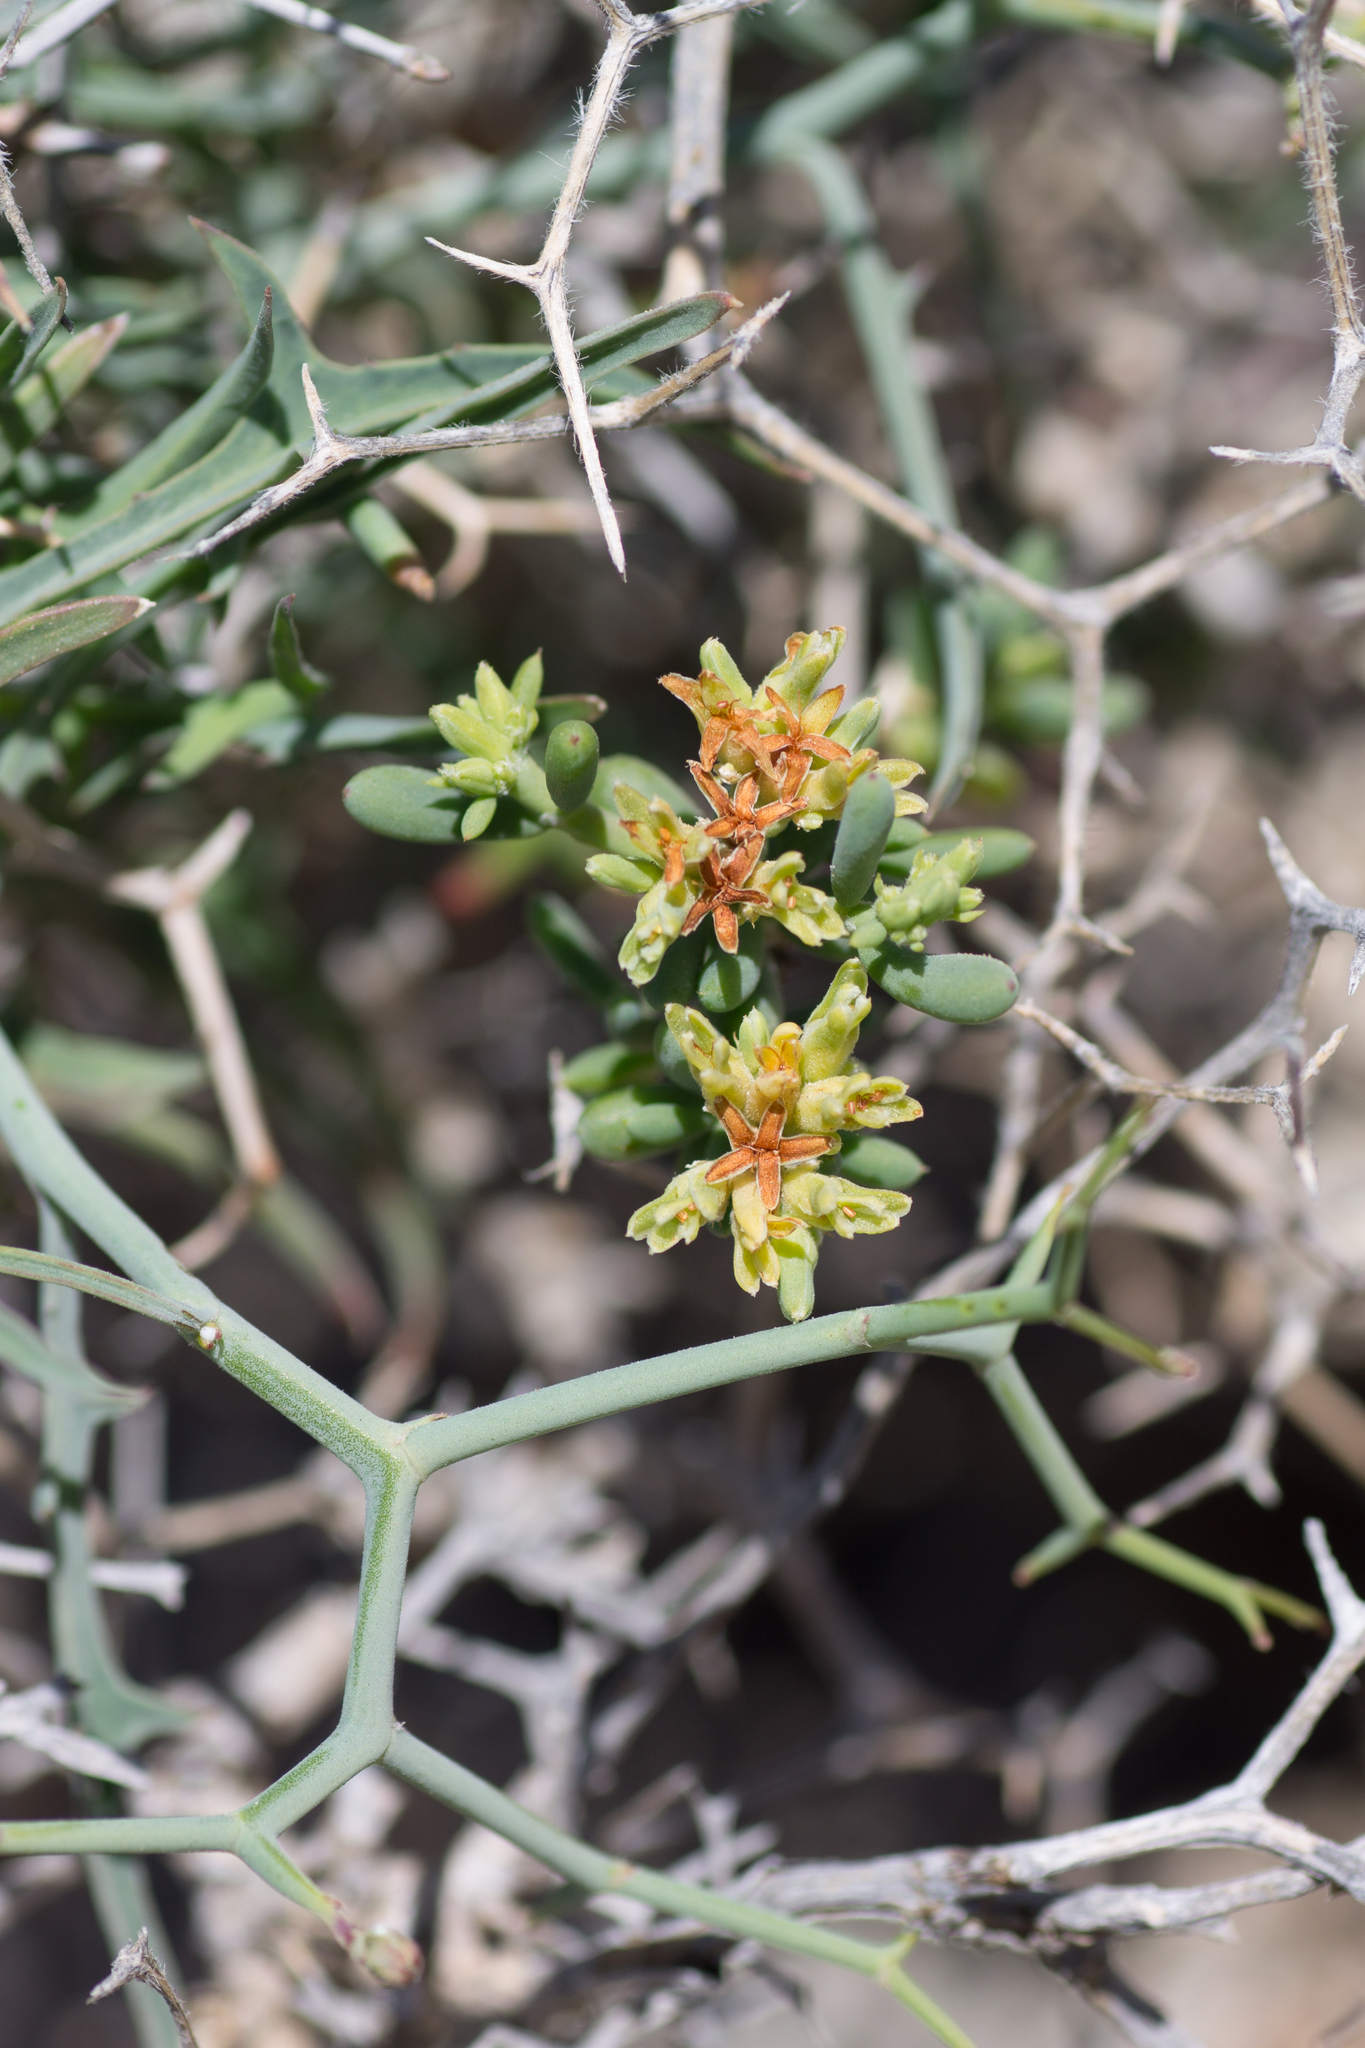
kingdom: Plantae
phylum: Tracheophyta
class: Magnoliopsida
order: Asterales
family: Asteraceae
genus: Launaea
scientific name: Launaea arborescens
